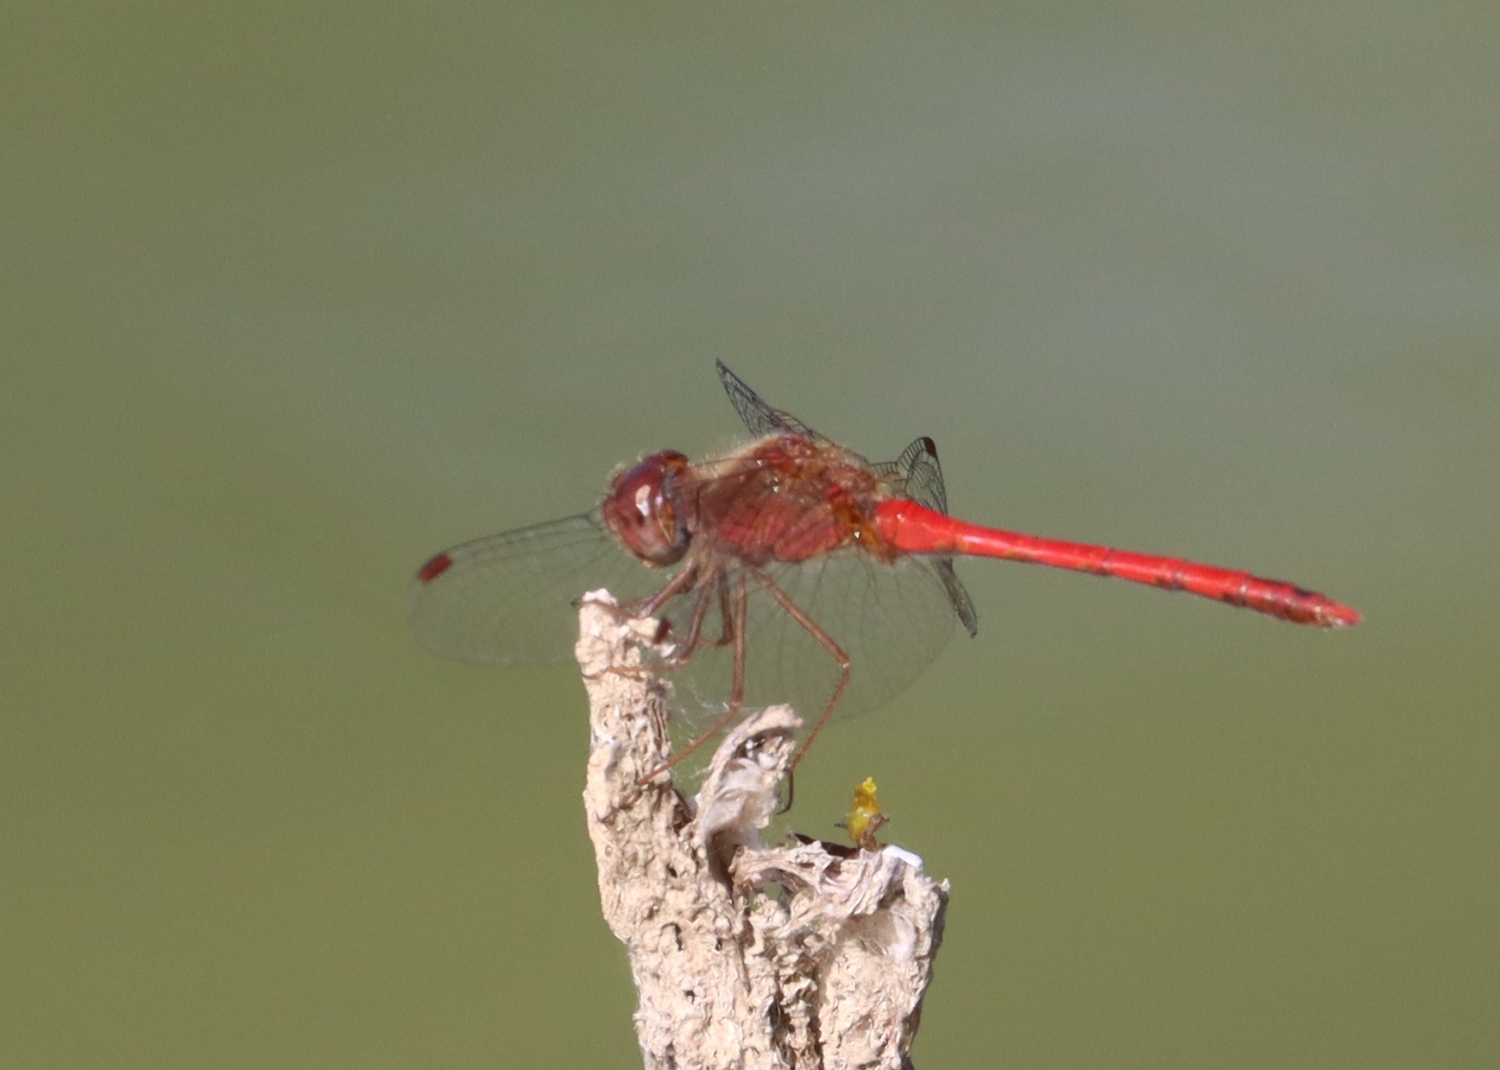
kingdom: Animalia
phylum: Arthropoda
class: Insecta
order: Odonata
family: Libellulidae
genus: Sympetrum
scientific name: Sympetrum vicinum
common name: Autumn meadowhawk
